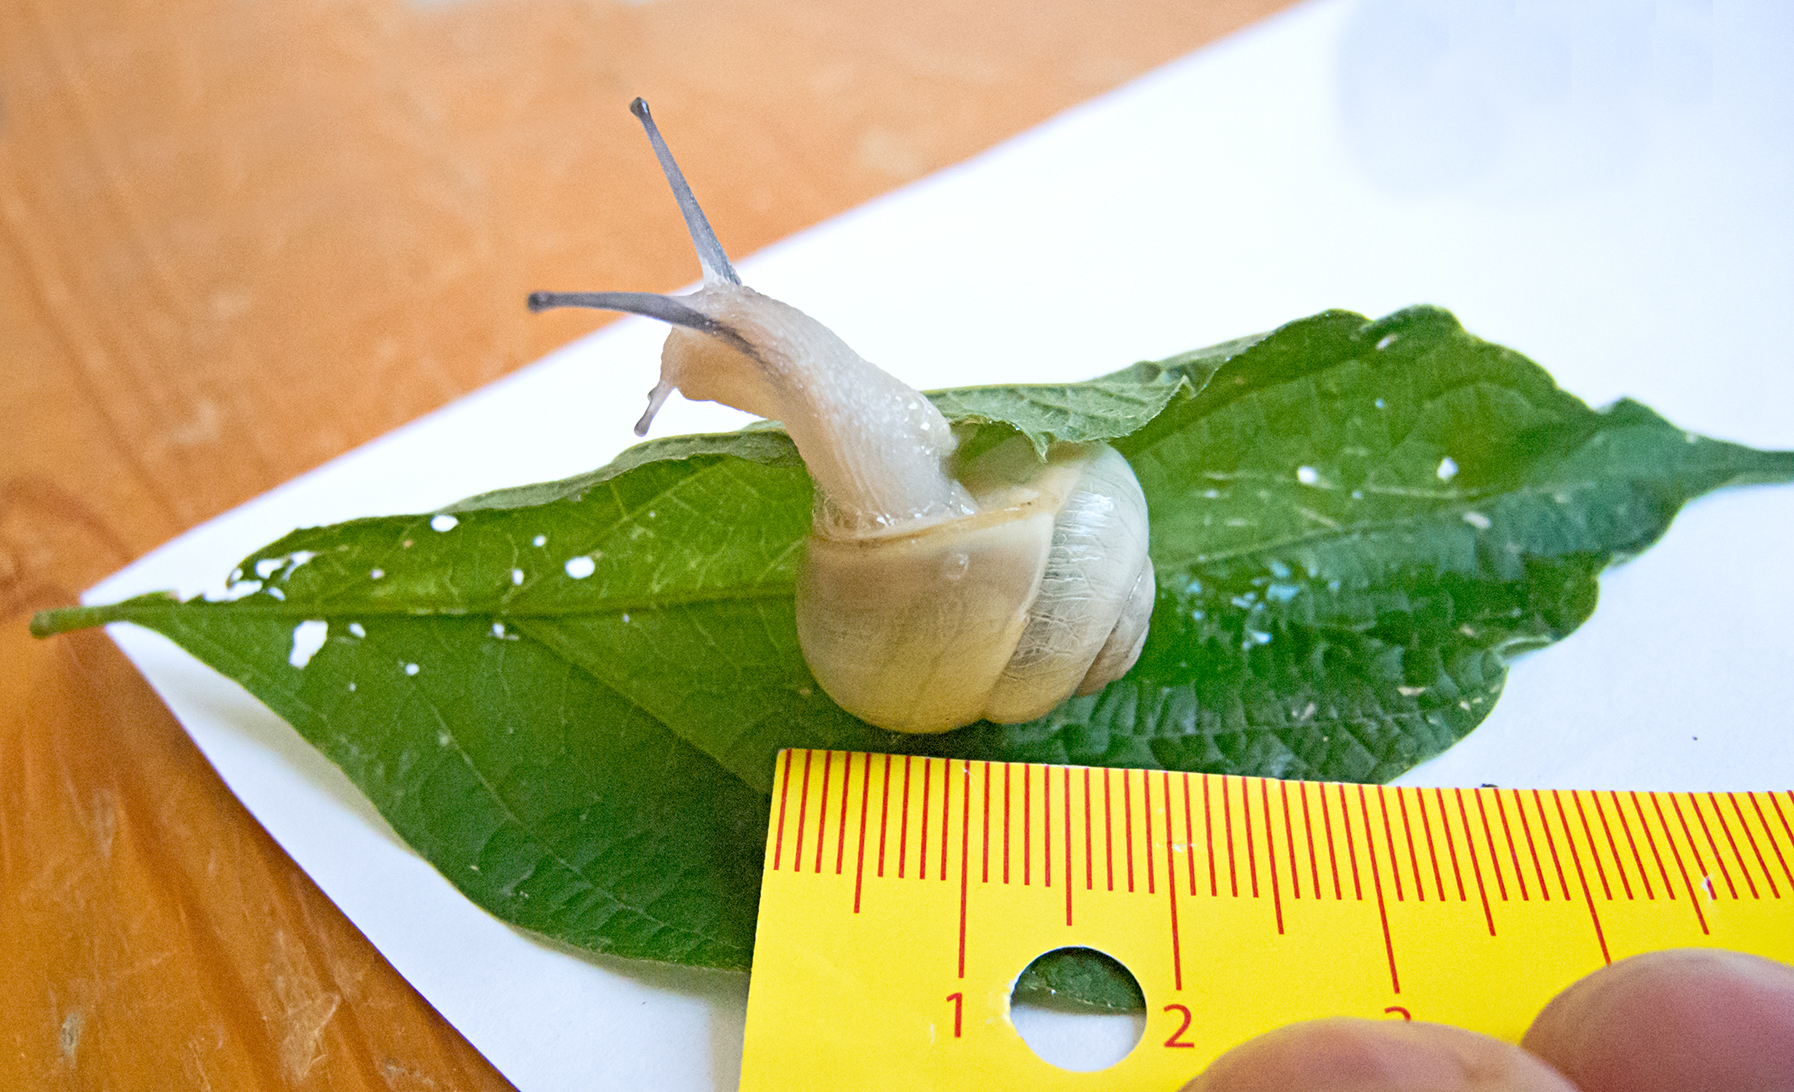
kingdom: Animalia
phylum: Mollusca
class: Gastropoda
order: Stylommatophora
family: Helicidae
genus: Cepaea
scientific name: Cepaea hortensis
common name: White-lip gardensnail
